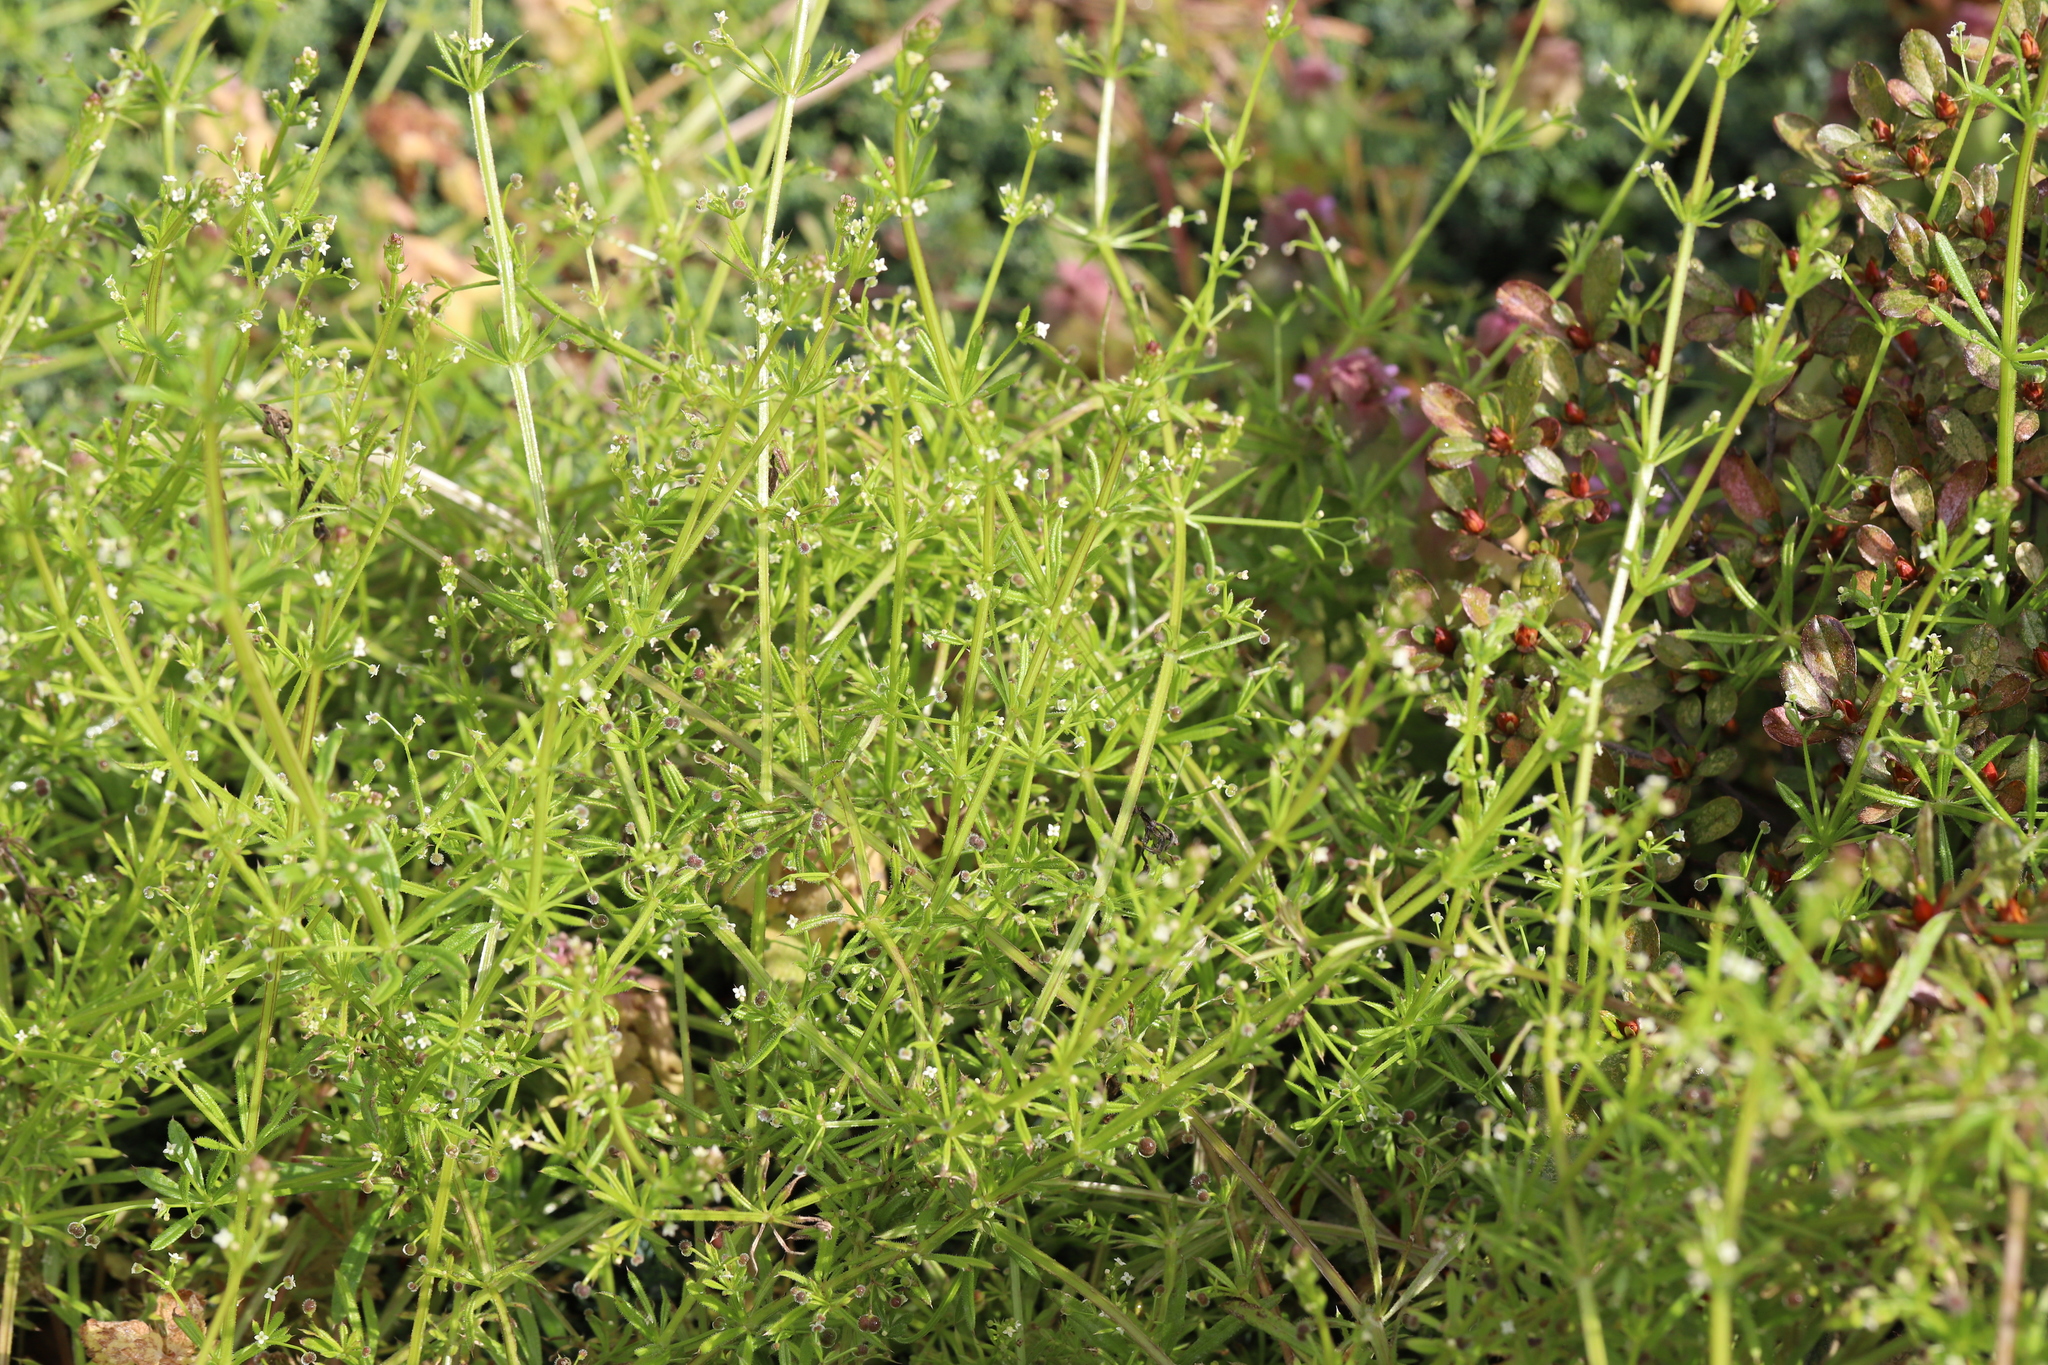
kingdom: Plantae
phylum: Tracheophyta
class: Magnoliopsida
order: Gentianales
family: Rubiaceae
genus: Galium
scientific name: Galium aparine
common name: Cleavers
